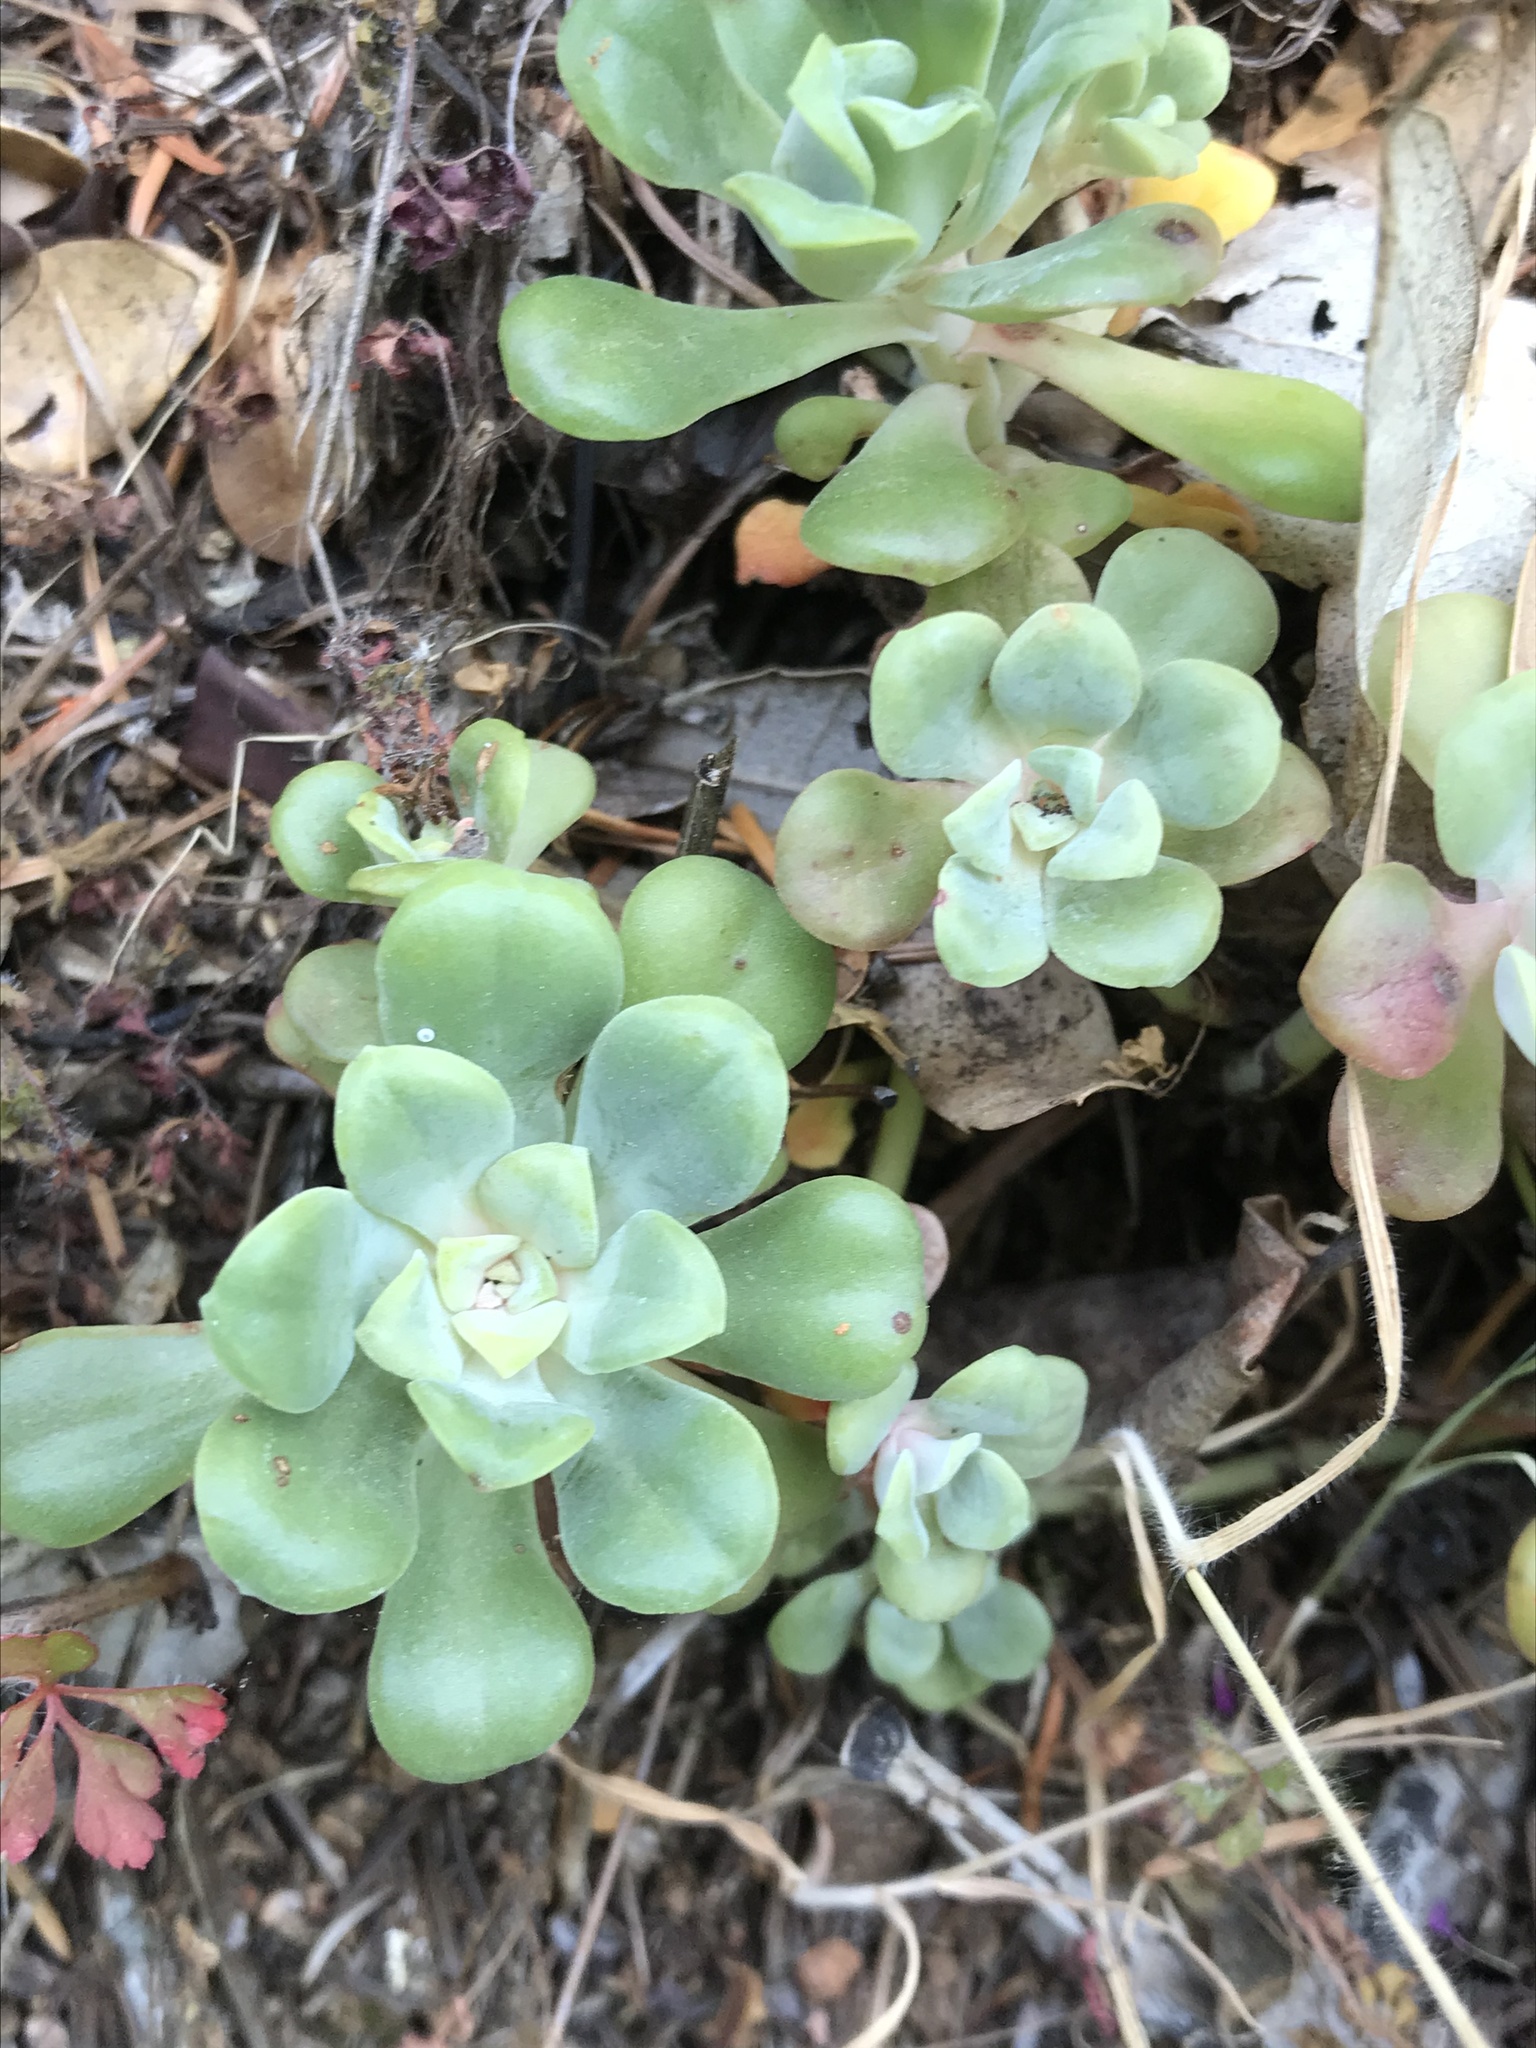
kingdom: Plantae
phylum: Tracheophyta
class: Magnoliopsida
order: Saxifragales
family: Crassulaceae
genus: Sedum
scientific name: Sedum spathulifolium
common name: Colorado stonecrop
